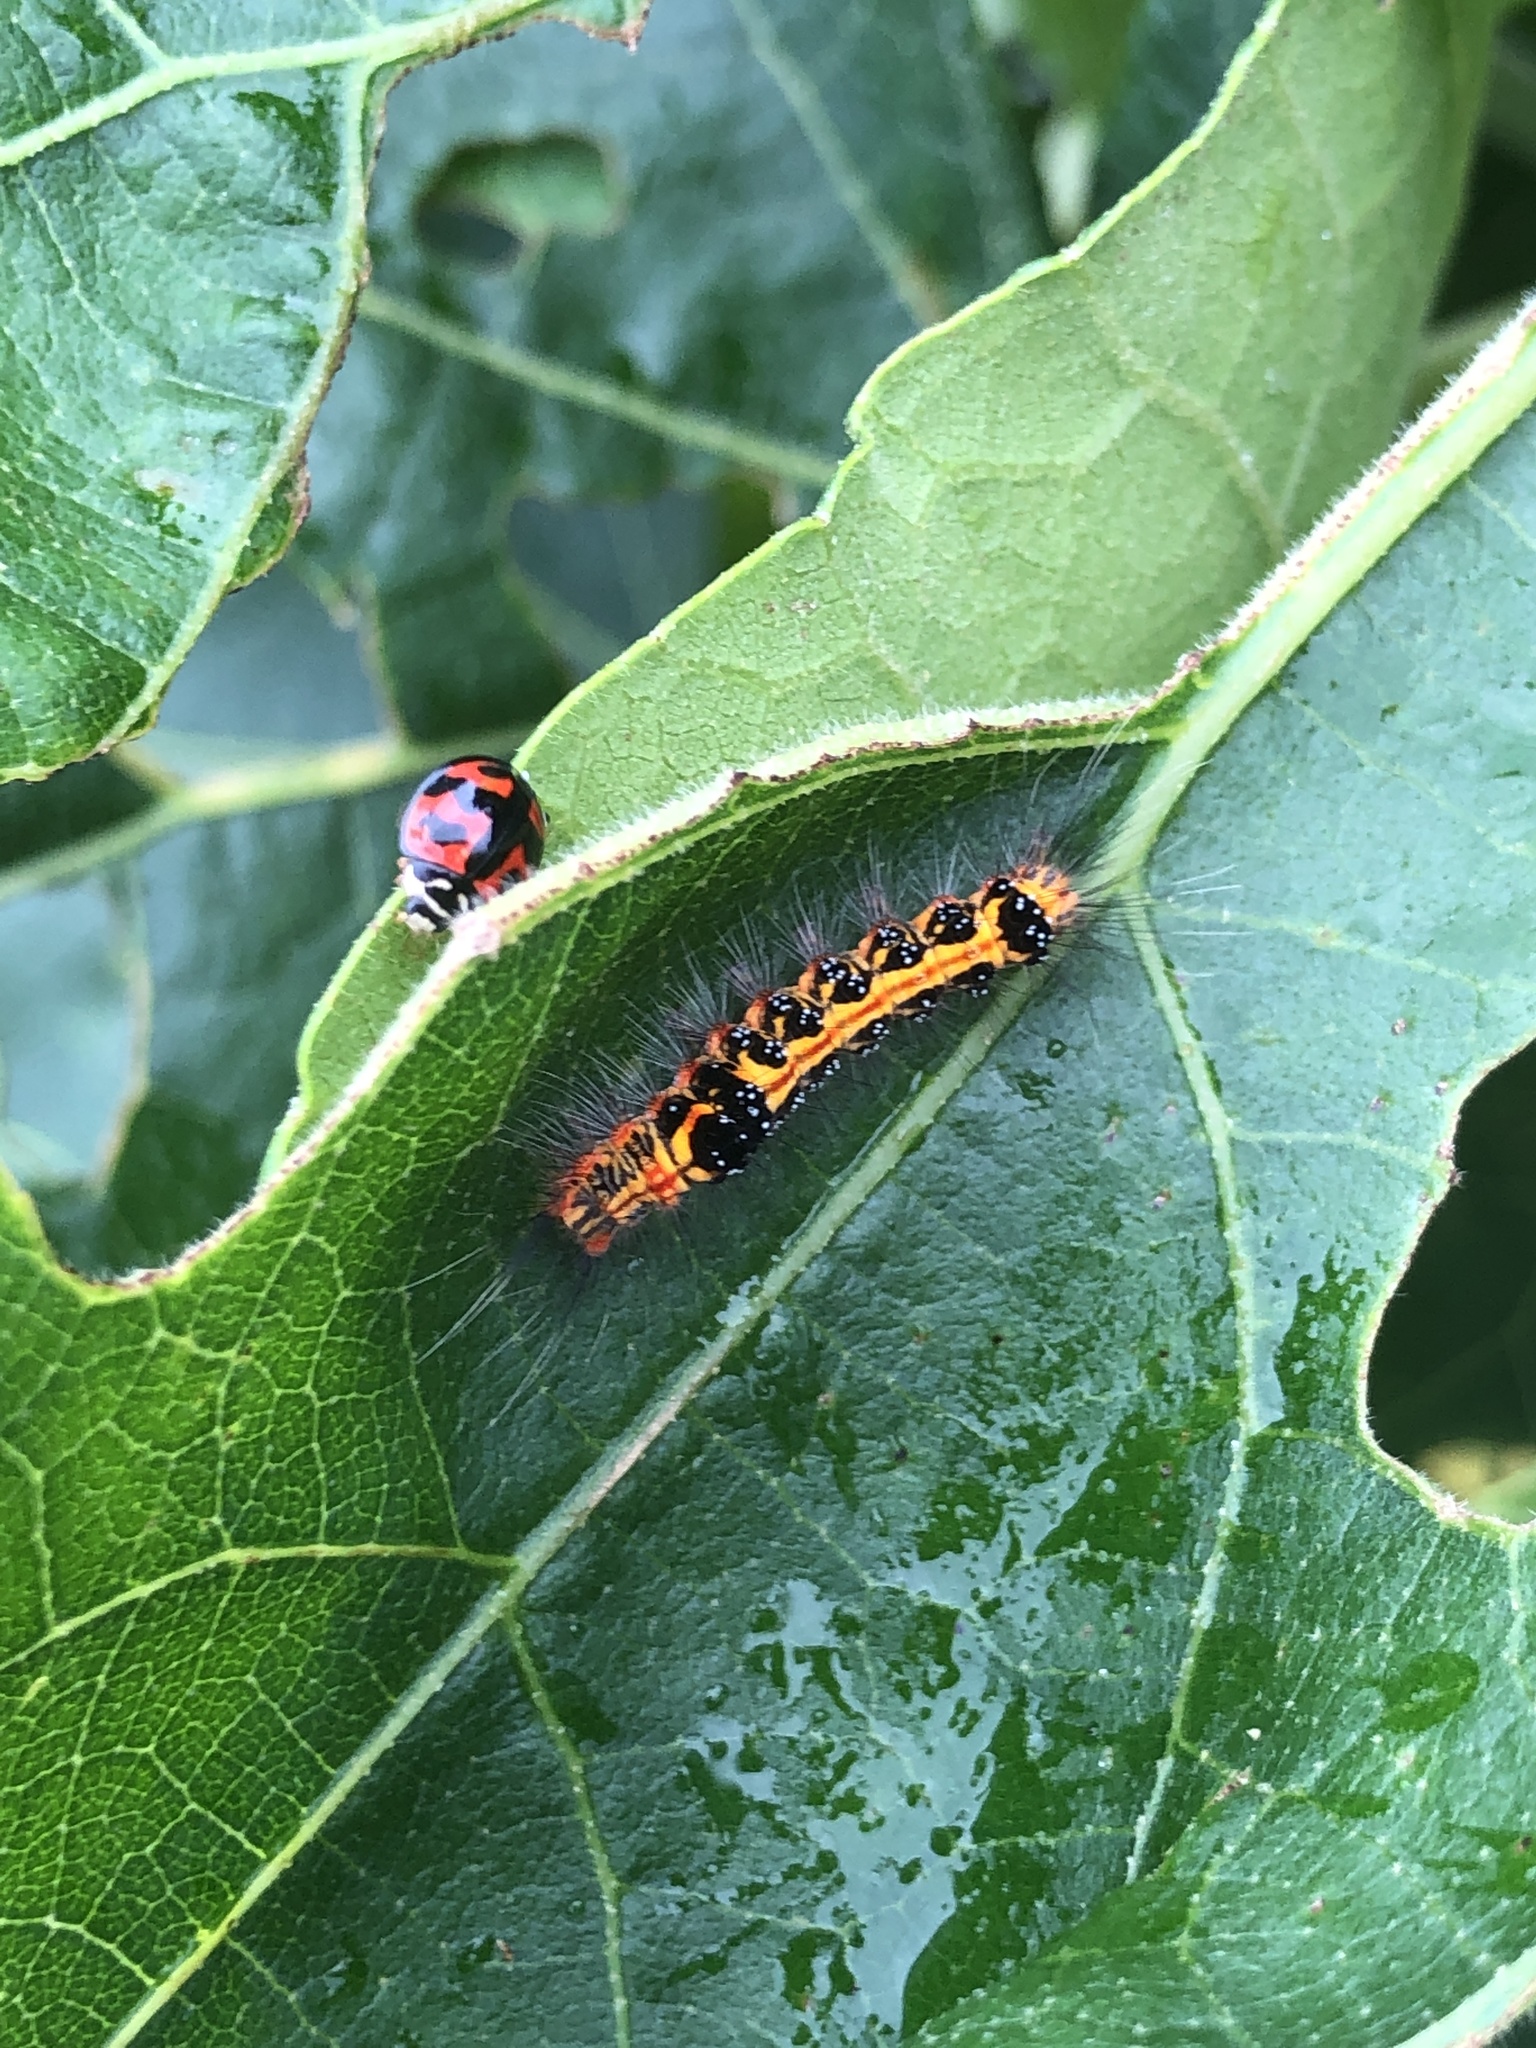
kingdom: Animalia
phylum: Arthropoda
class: Insecta
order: Coleoptera
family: Coccinellidae
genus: Cheilomenes
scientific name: Cheilomenes sexmaculata
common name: Ladybird beetle
